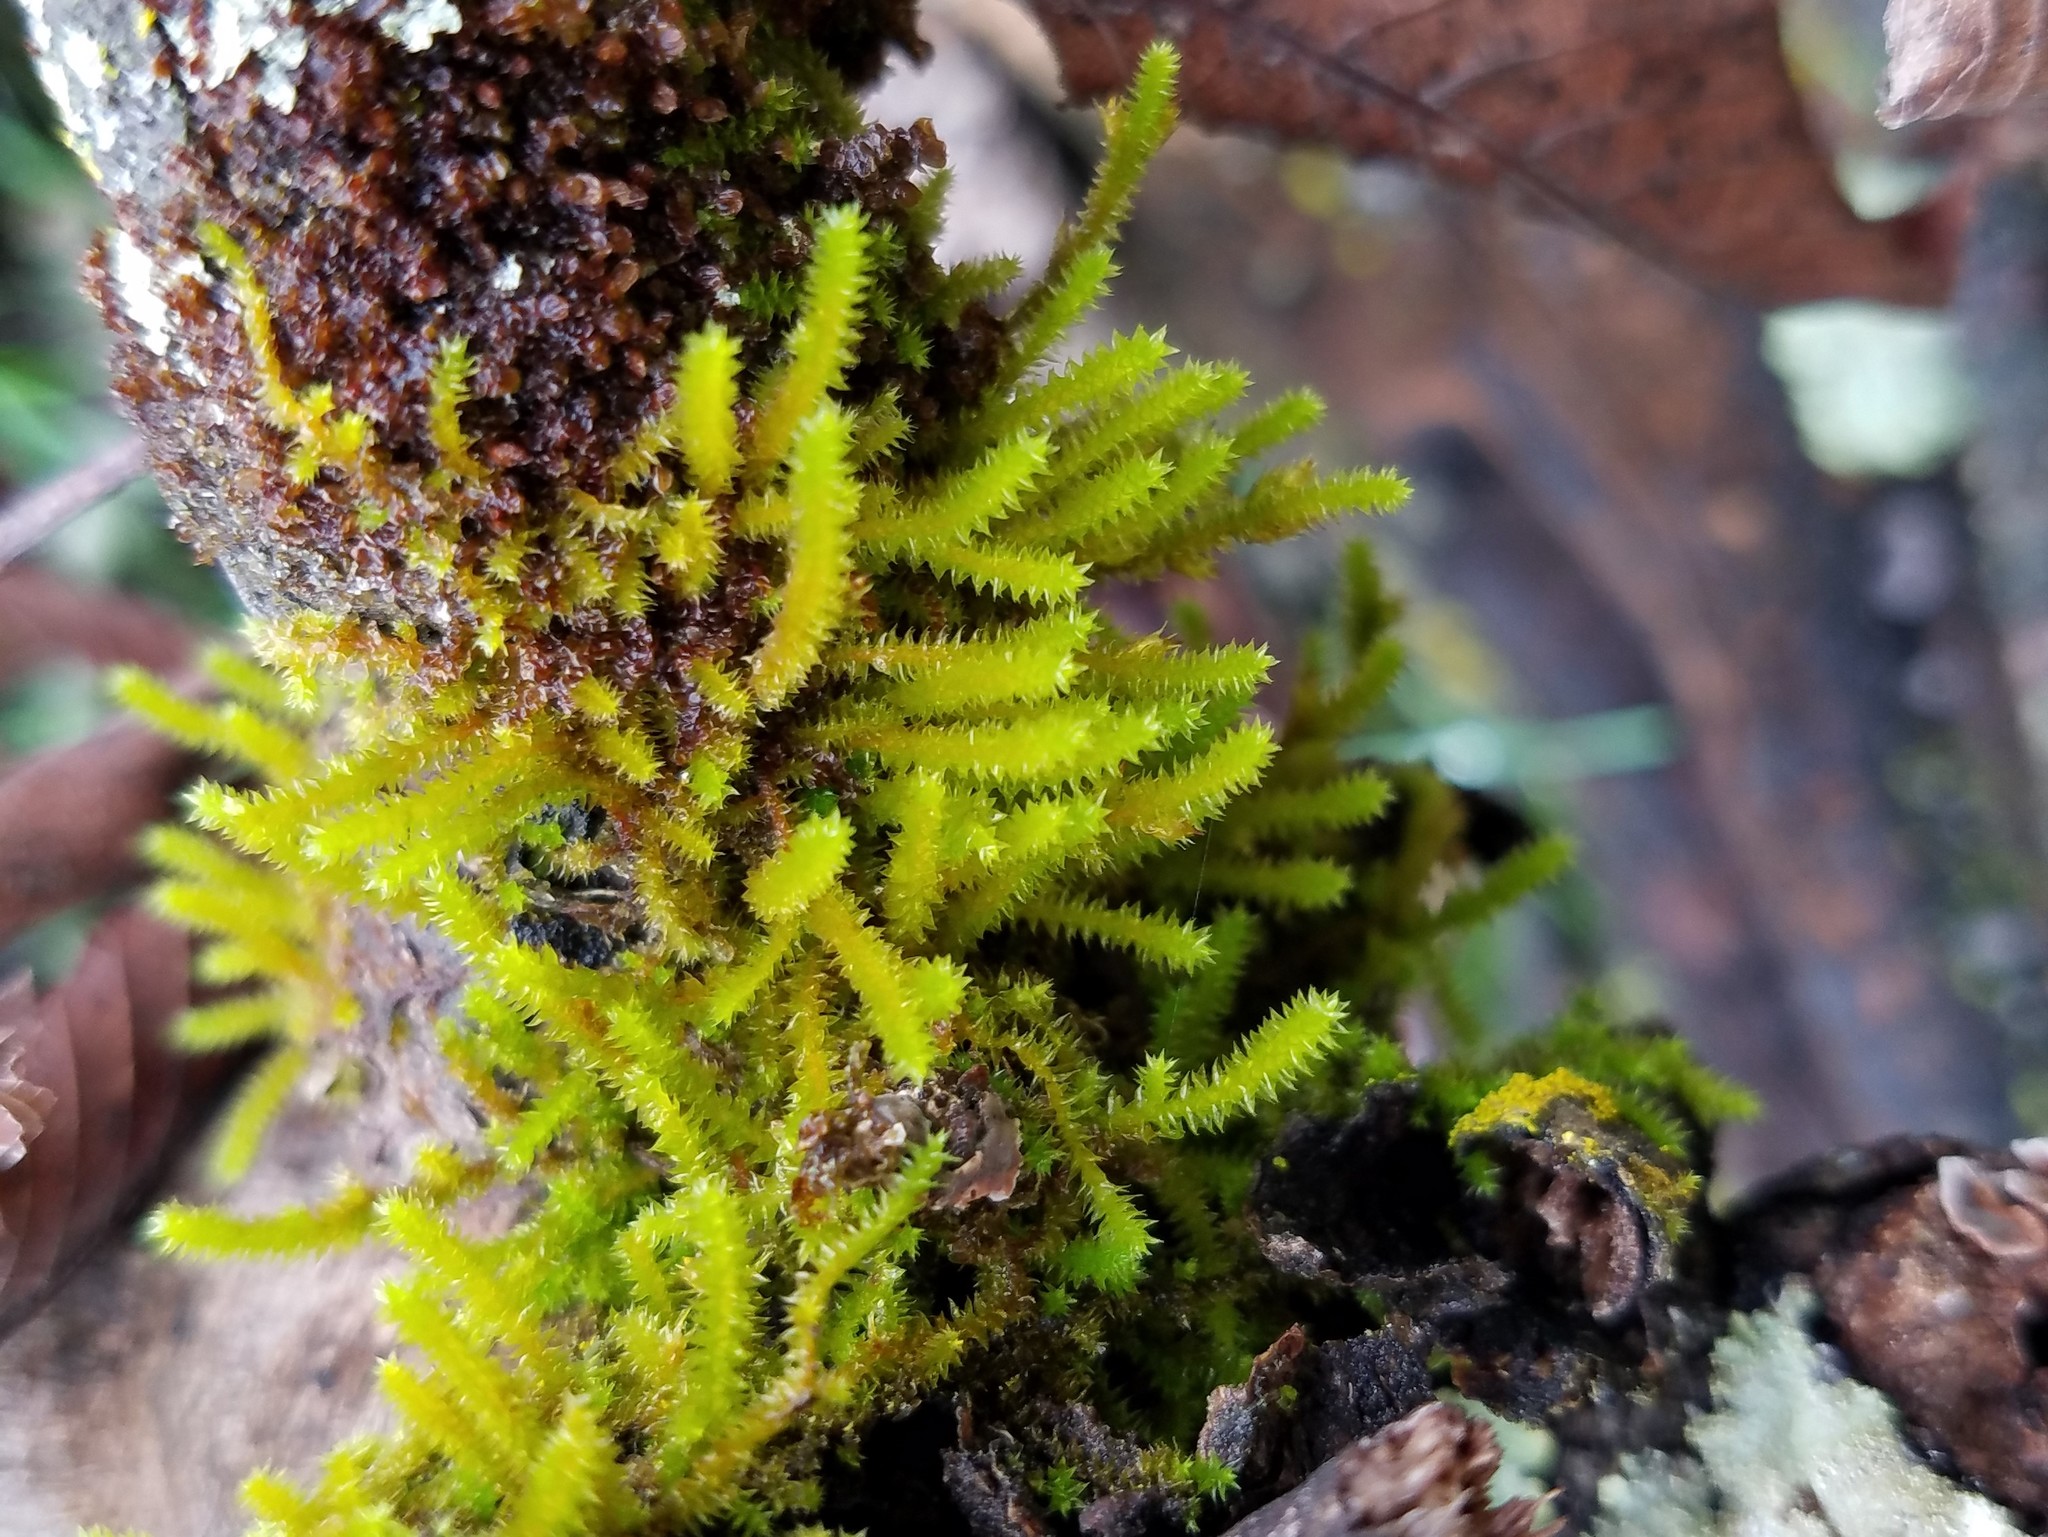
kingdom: Plantae
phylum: Bryophyta
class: Bryopsida
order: Hypnales
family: Leucodontaceae
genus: Leucodon
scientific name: Leucodon julaceus
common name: Smooth hook moss
